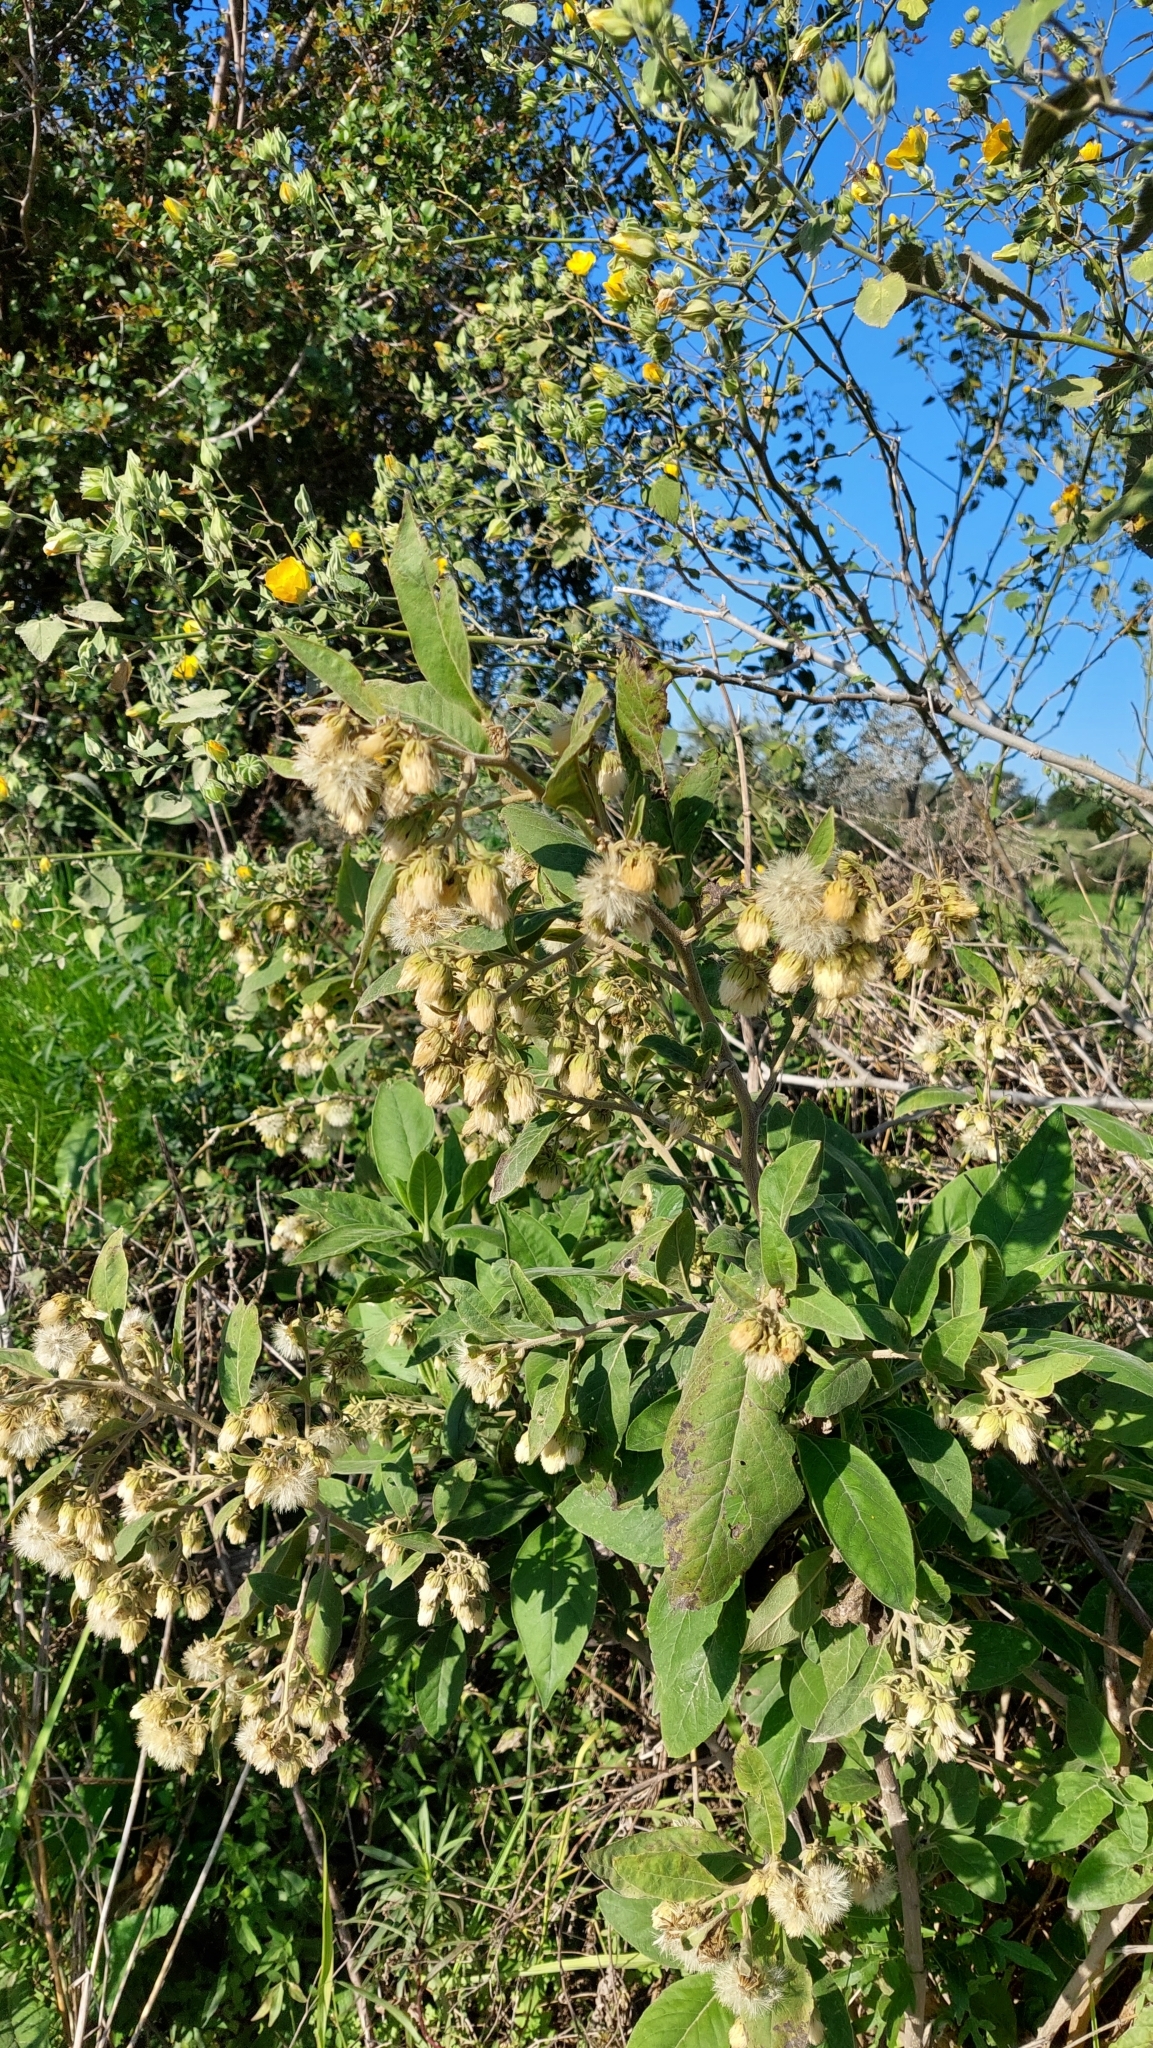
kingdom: Plantae
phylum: Tracheophyta
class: Magnoliopsida
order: Asterales
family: Asteraceae
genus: Trixis
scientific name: Trixis praestans
